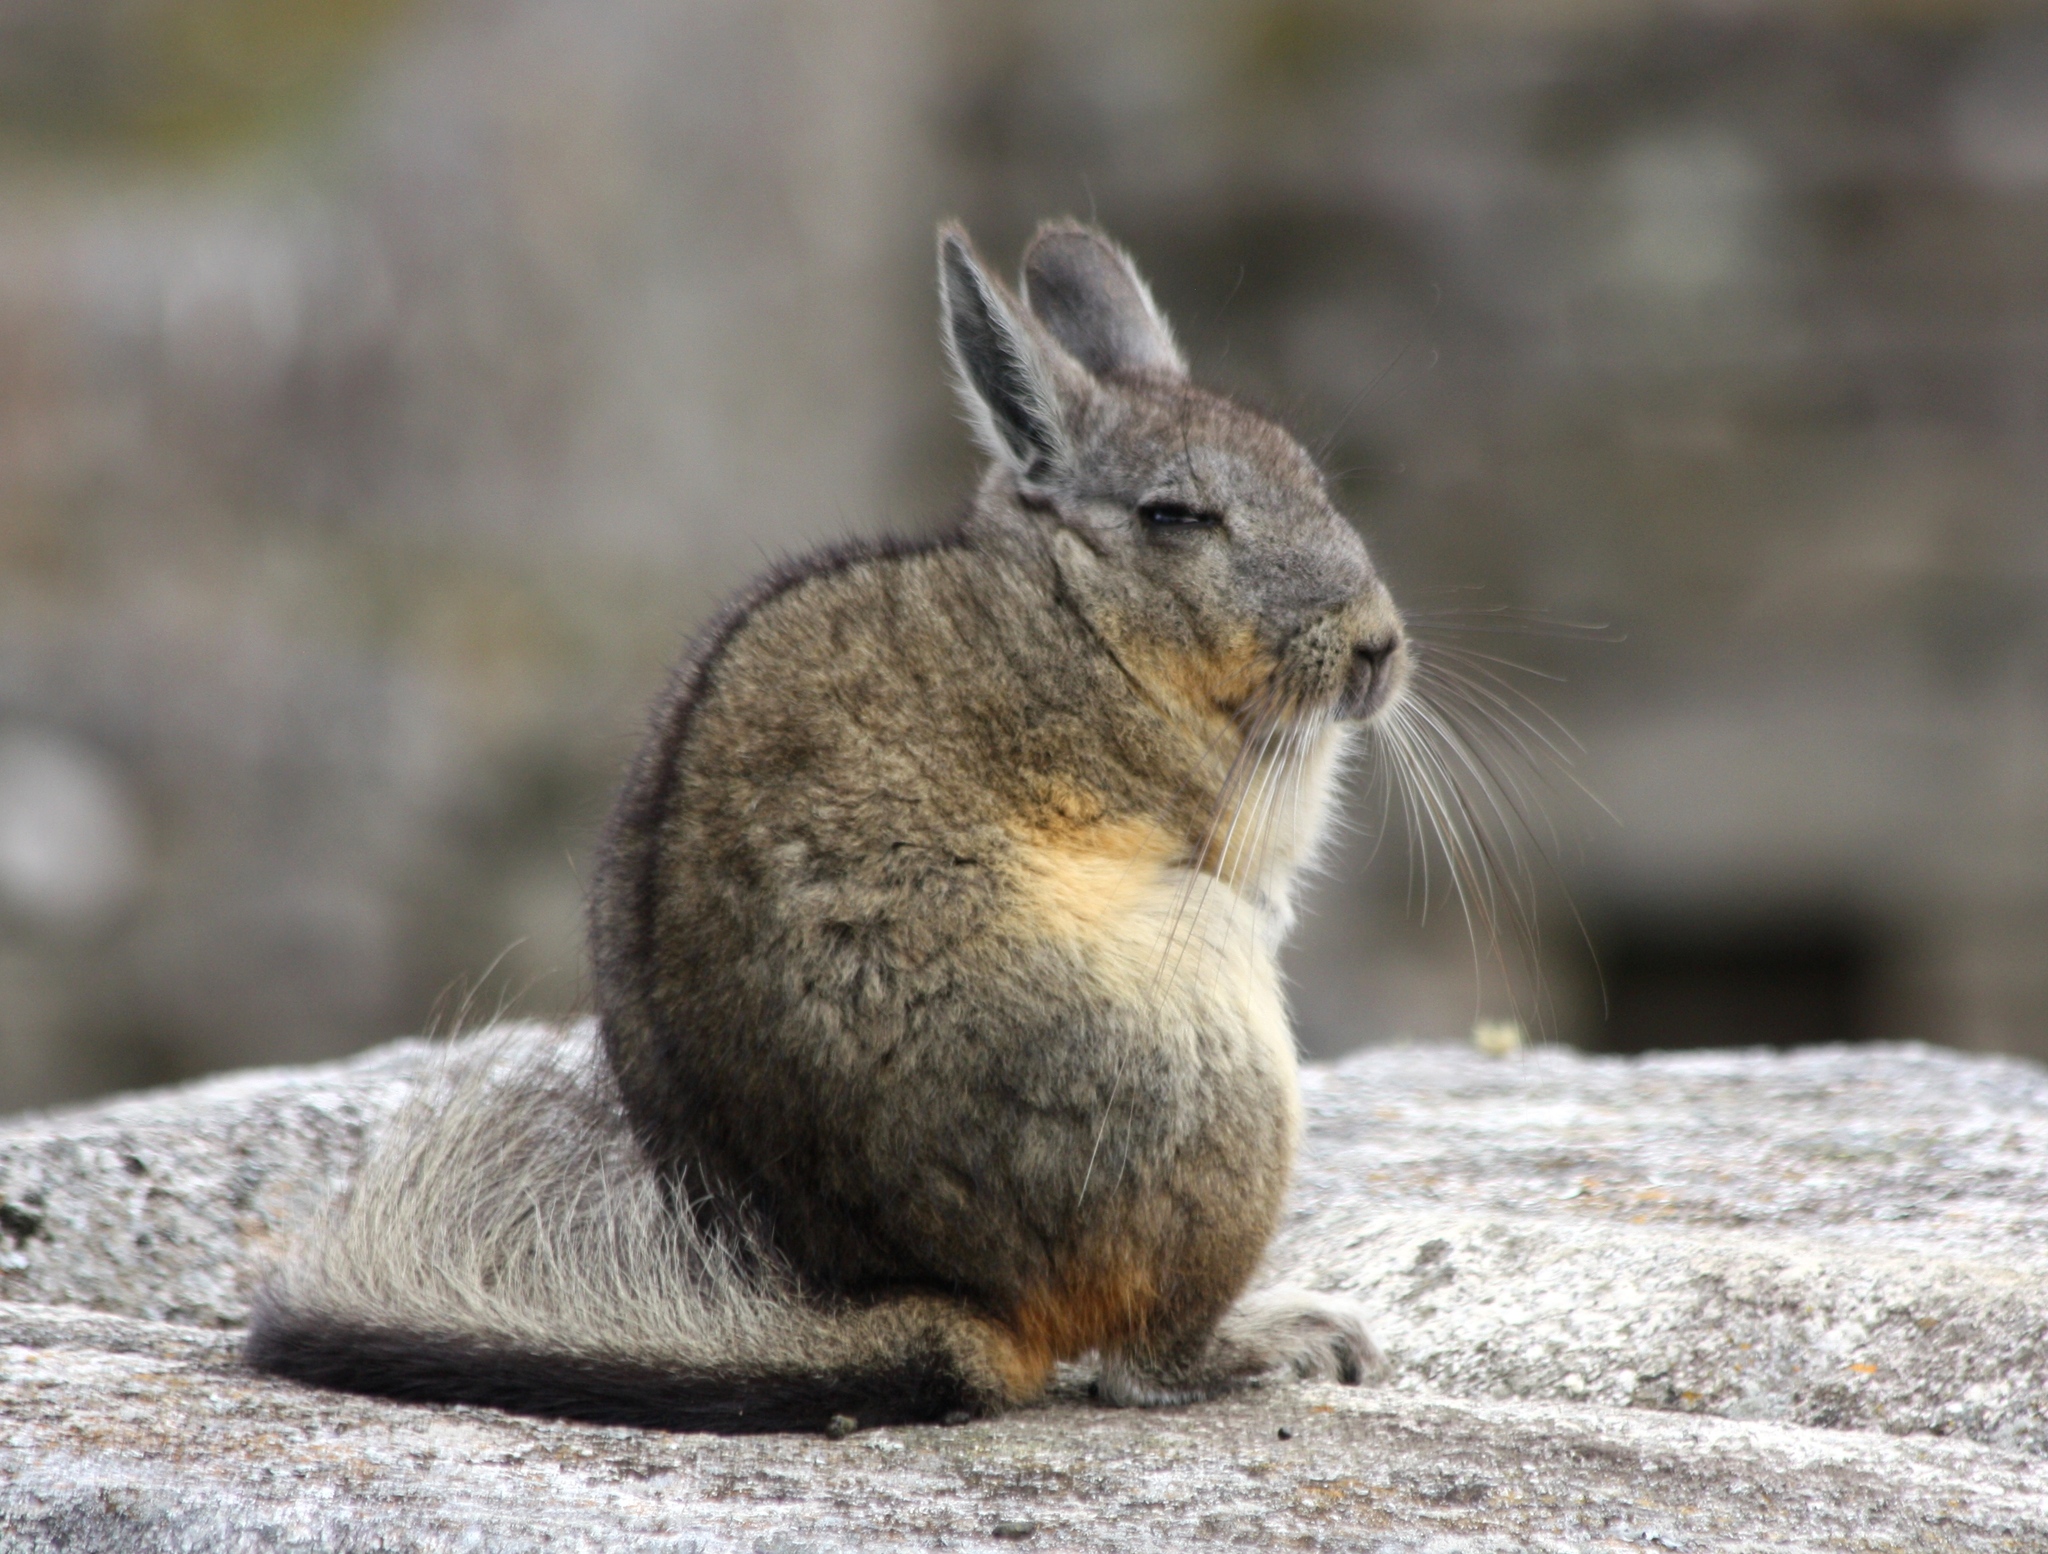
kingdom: Animalia
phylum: Chordata
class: Mammalia
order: Rodentia
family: Chinchillidae
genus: Lagidium
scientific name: Lagidium viscacia
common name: Southern viscacha
